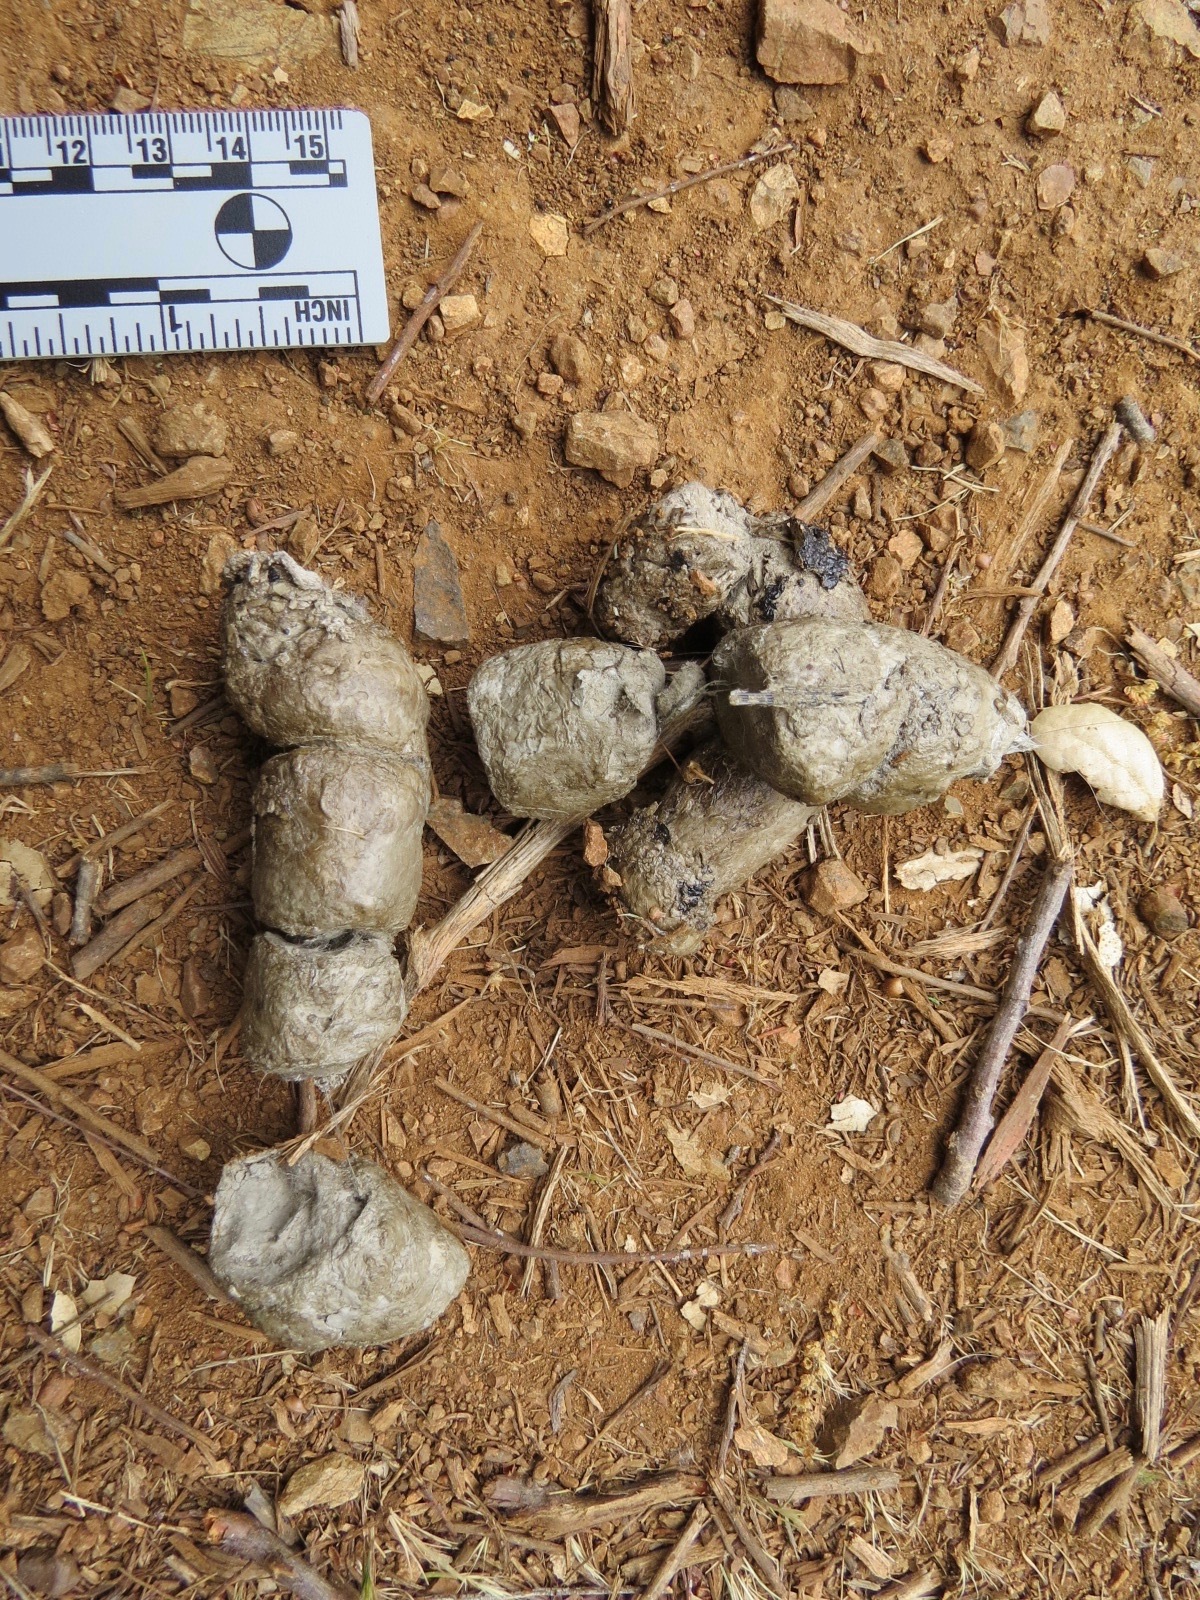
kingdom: Animalia
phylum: Chordata
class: Mammalia
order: Carnivora
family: Felidae
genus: Lynx
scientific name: Lynx rufus
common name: Bobcat
